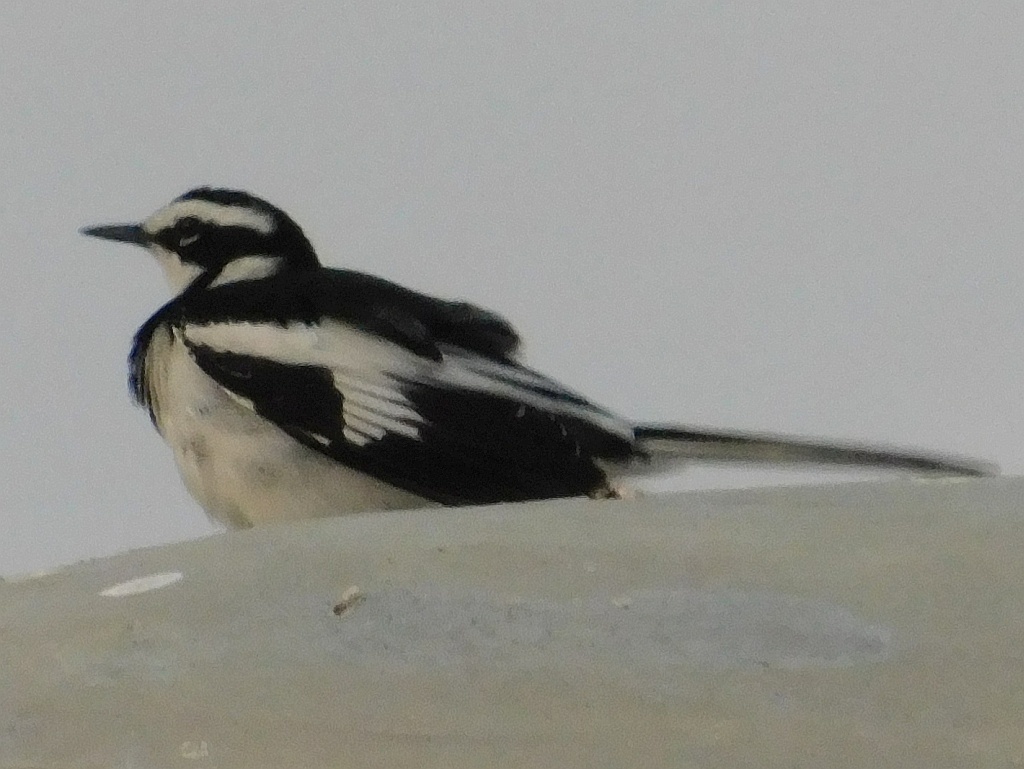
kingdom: Animalia
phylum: Chordata
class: Aves
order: Passeriformes
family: Motacillidae
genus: Motacilla
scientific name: Motacilla aguimp
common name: African pied wagtail
